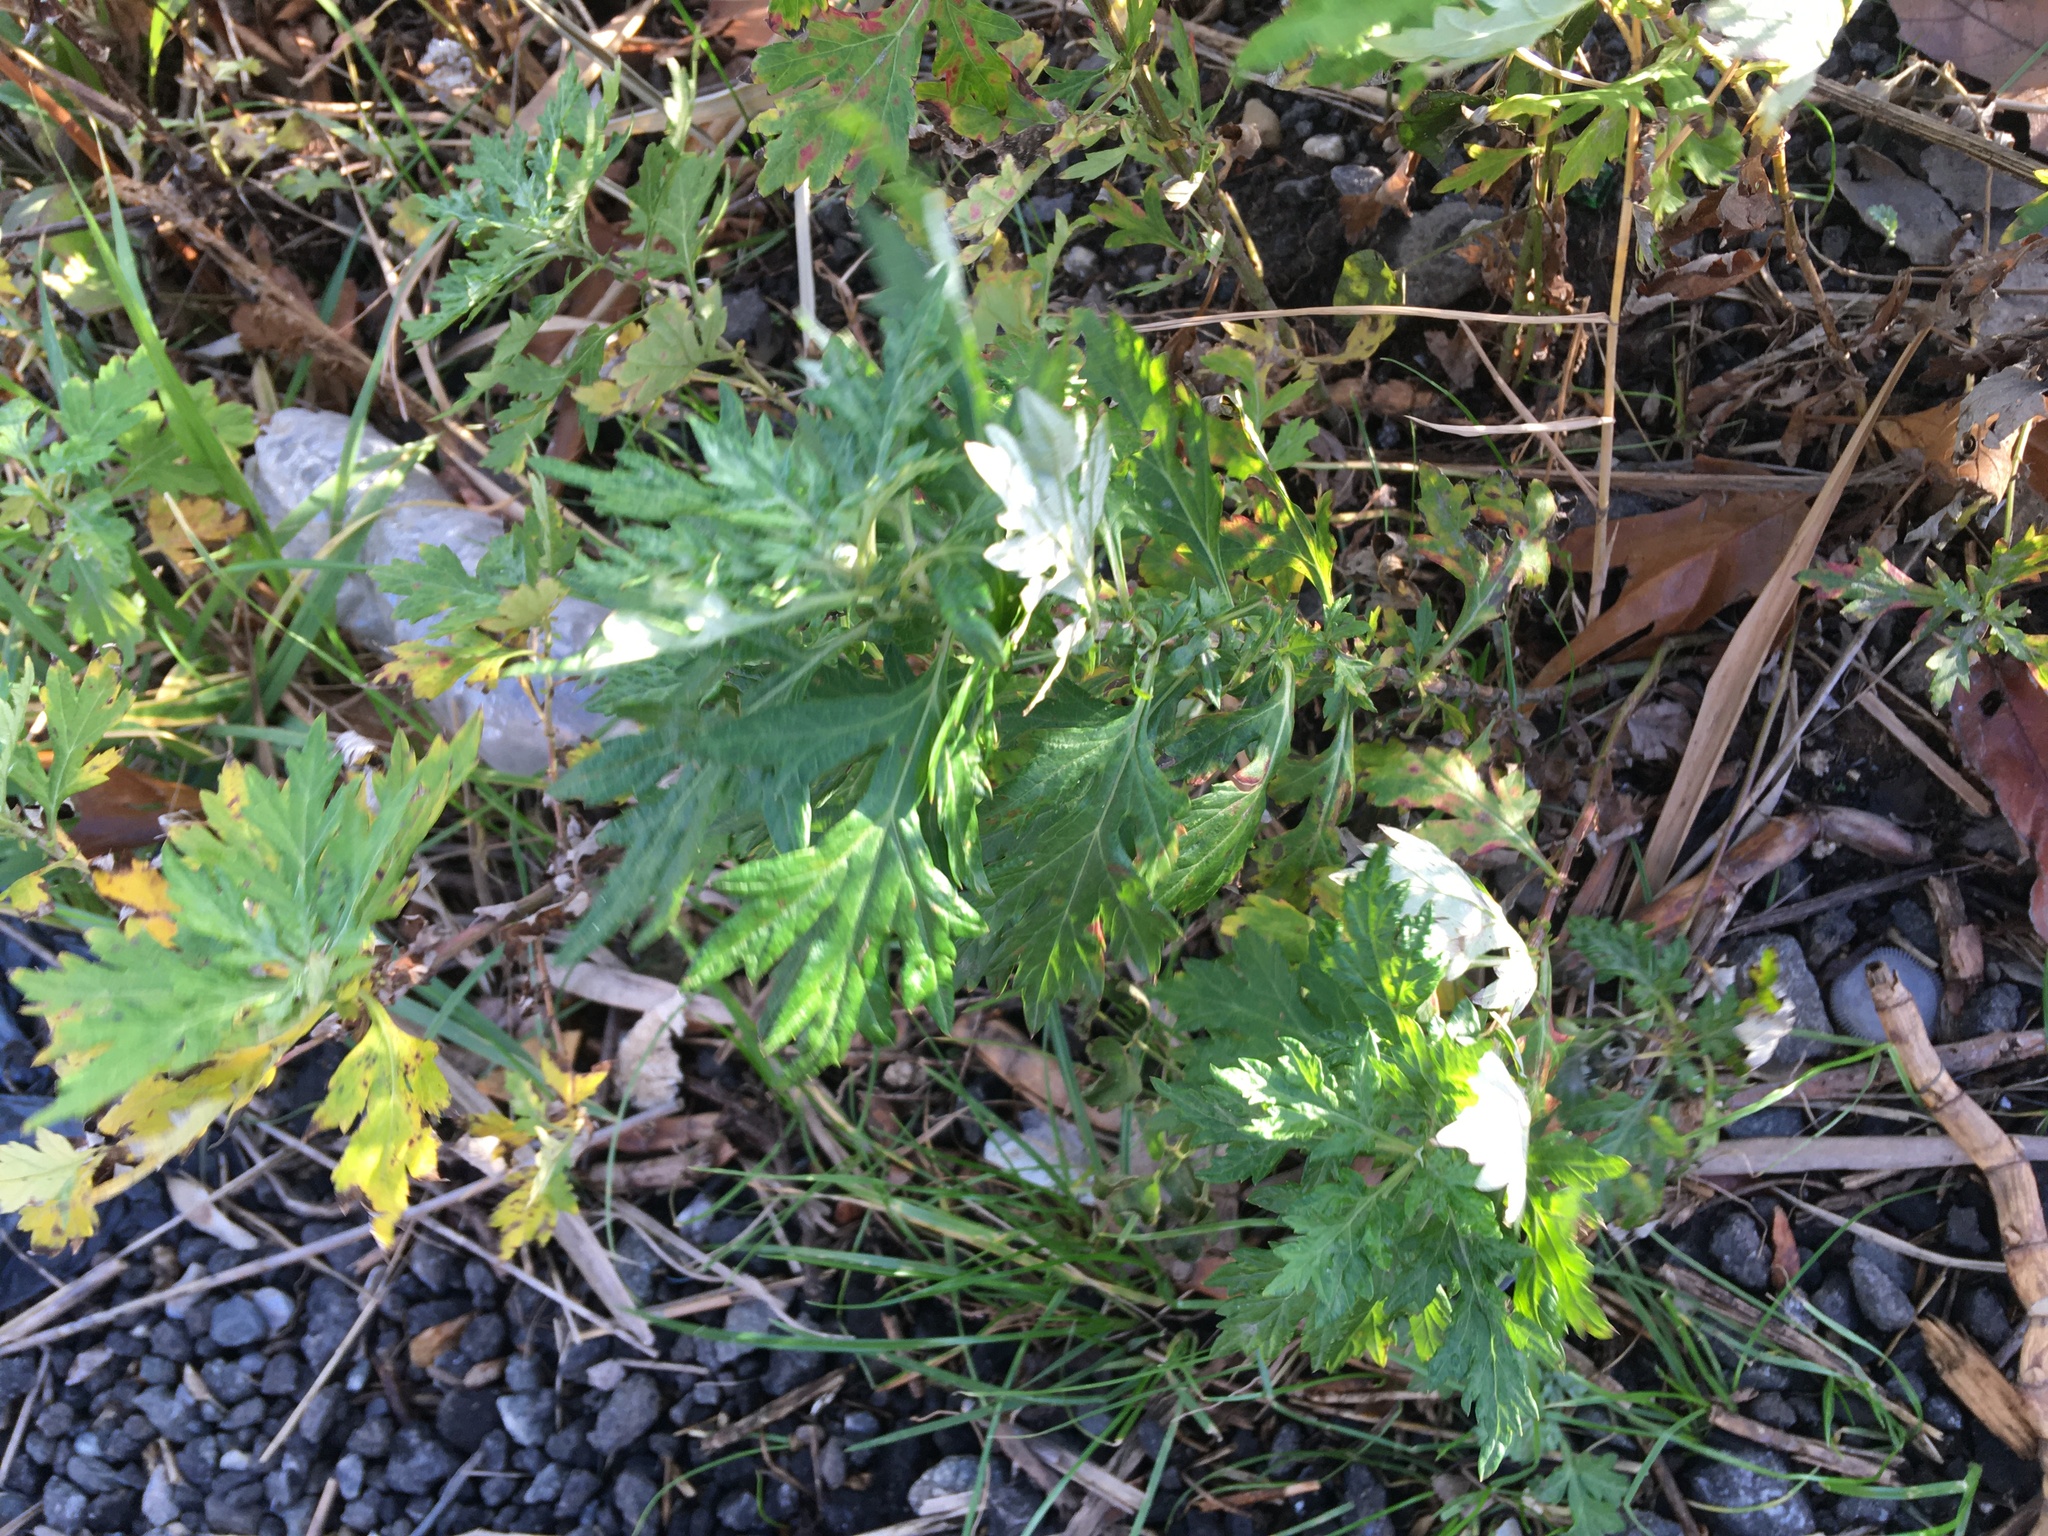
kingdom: Plantae
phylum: Tracheophyta
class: Magnoliopsida
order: Asterales
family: Asteraceae
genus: Artemisia
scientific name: Artemisia vulgaris
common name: Mugwort
